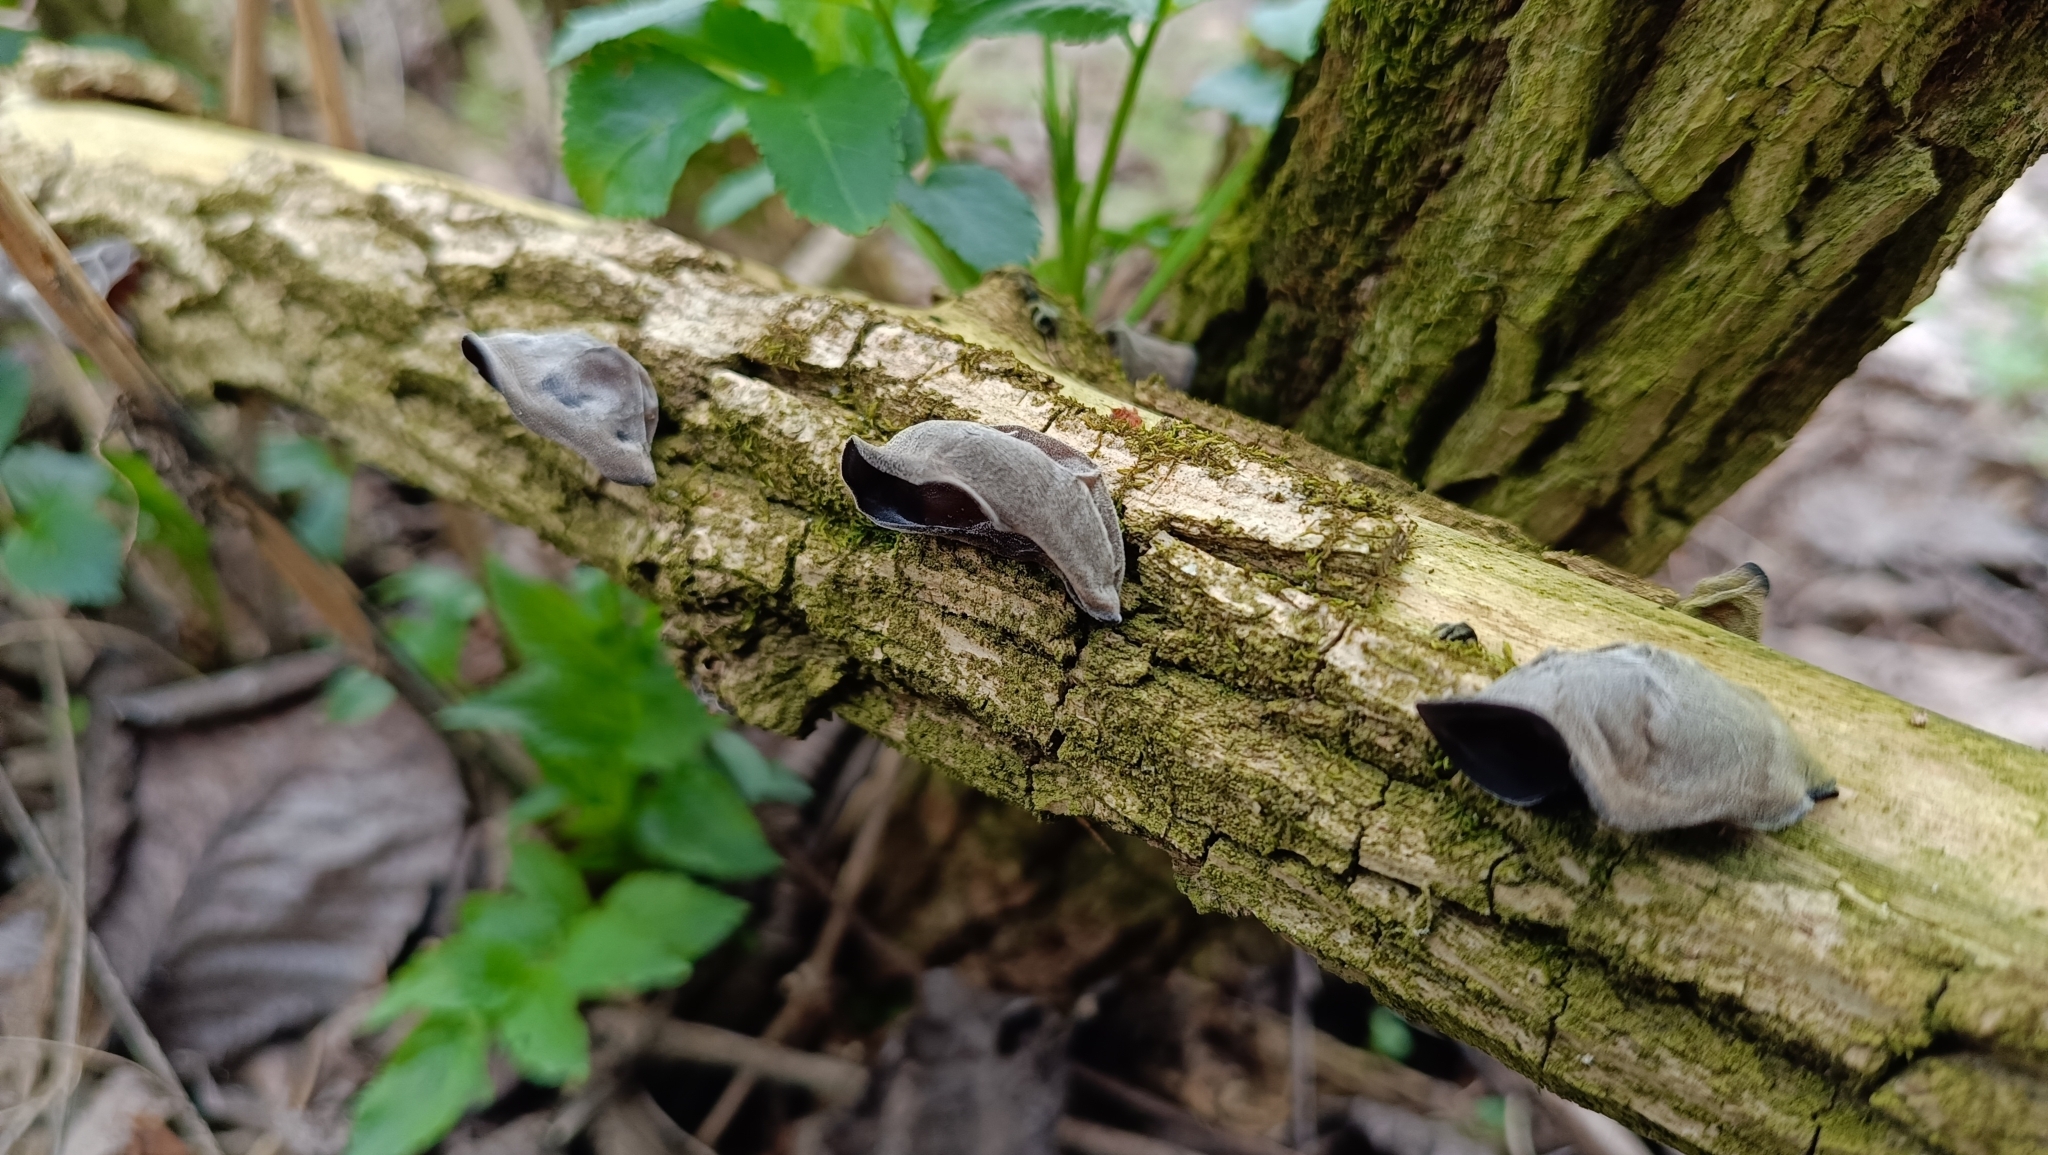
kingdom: Fungi
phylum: Basidiomycota
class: Agaricomycetes
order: Auriculariales
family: Auriculariaceae
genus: Auricularia
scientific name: Auricularia auricula-judae
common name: Jelly ear
